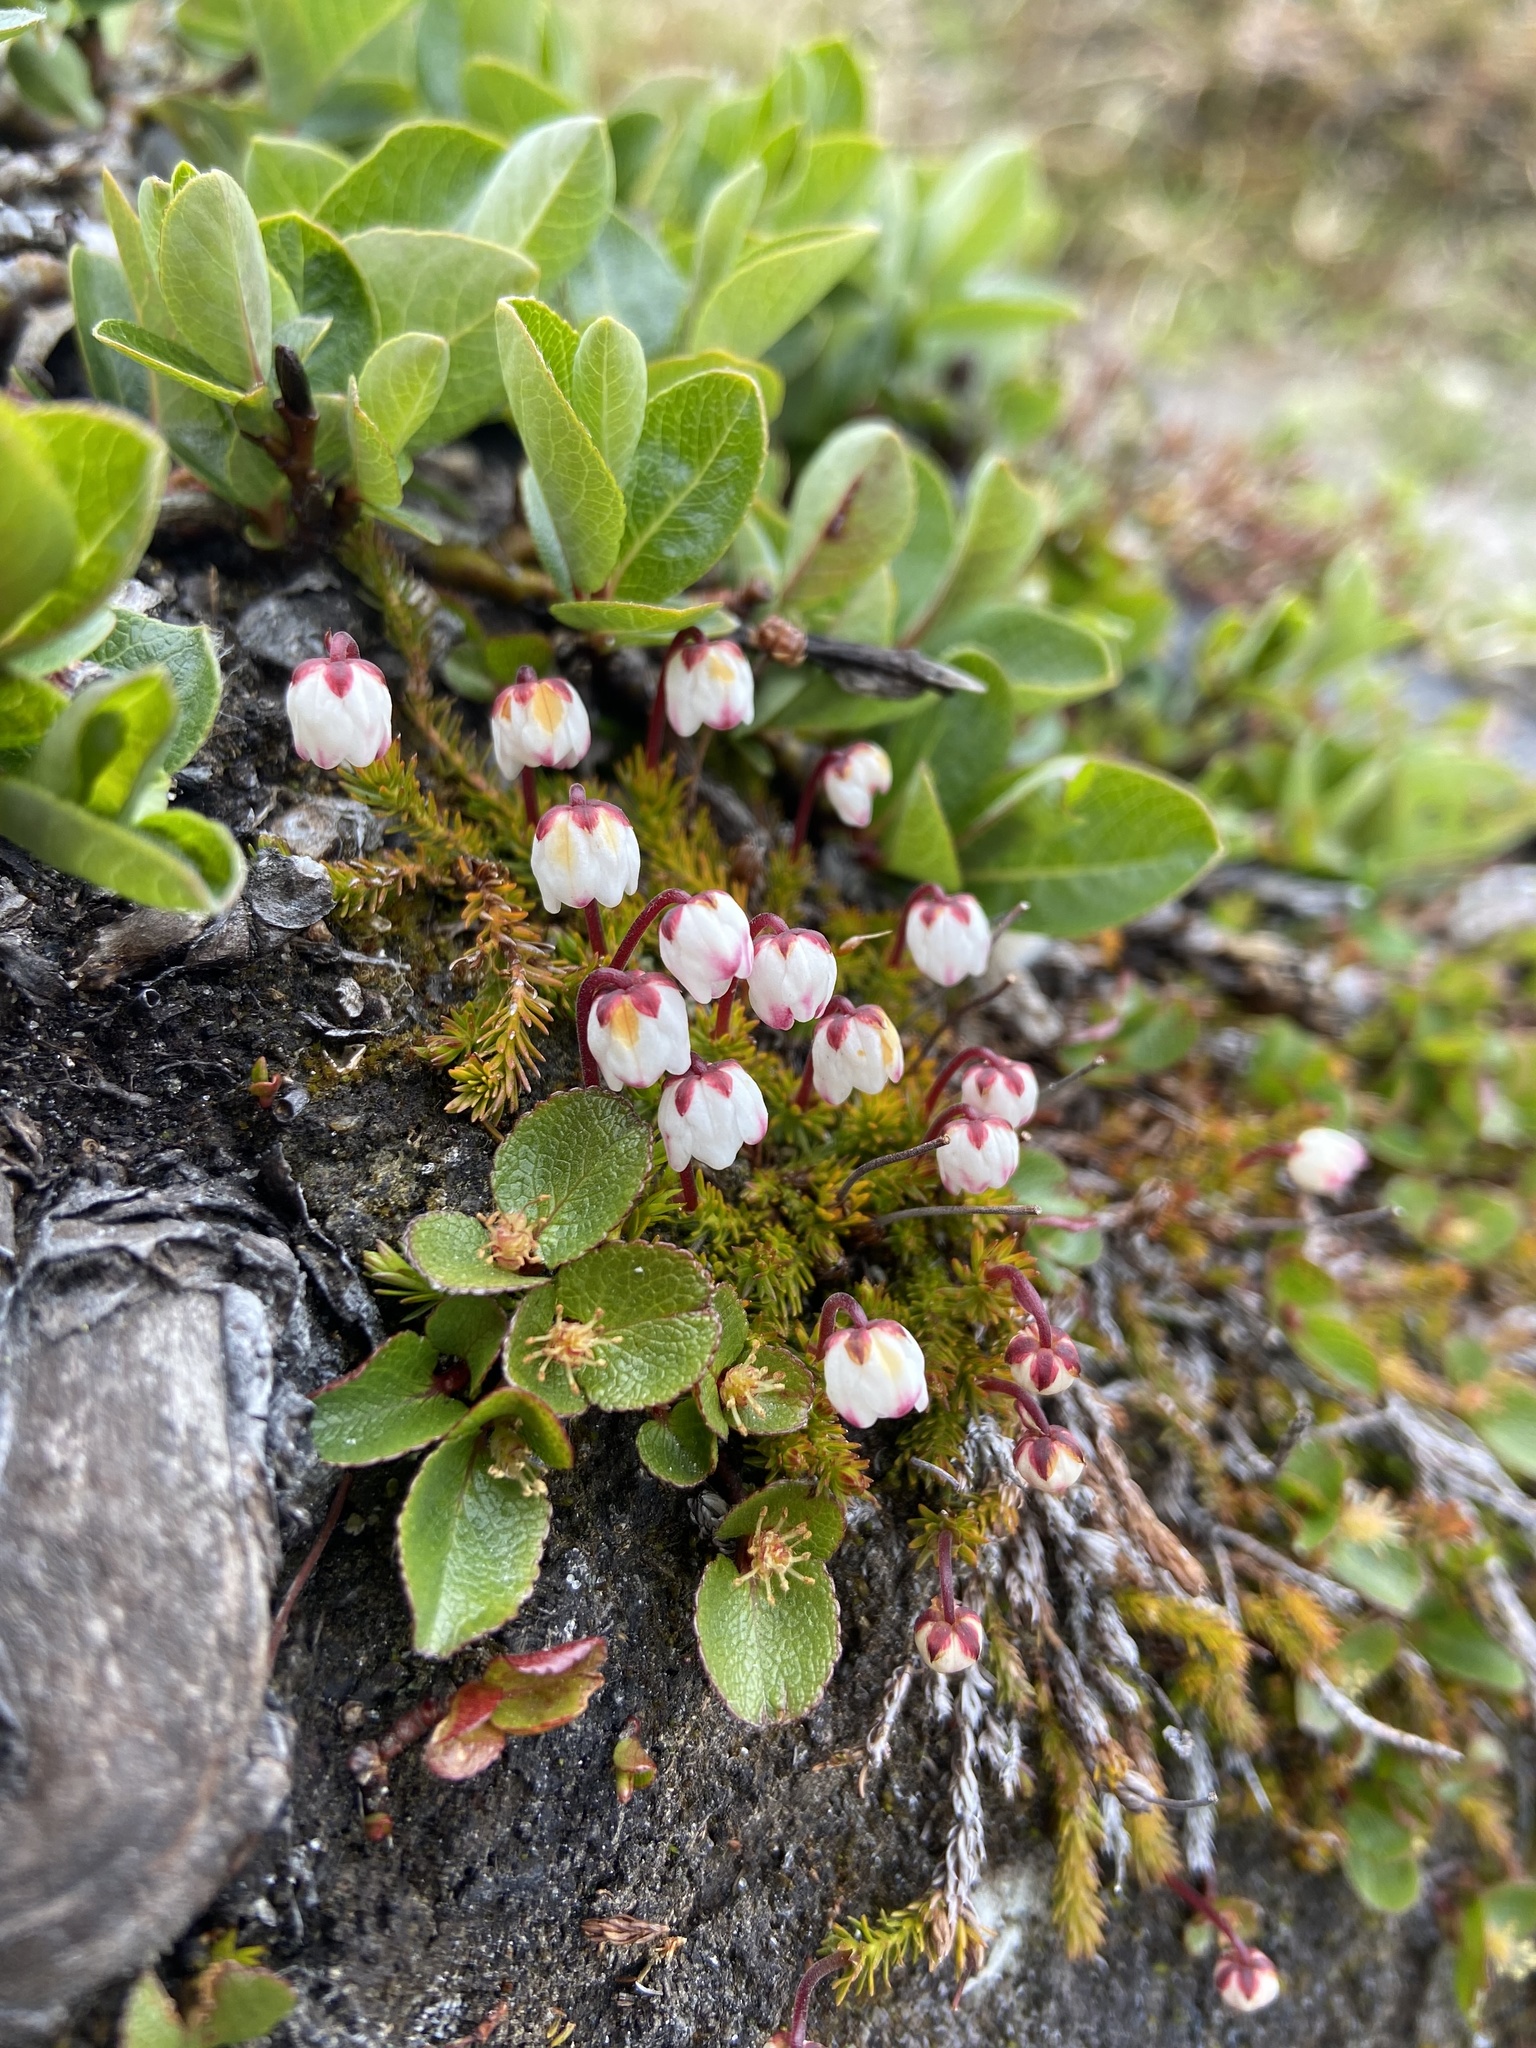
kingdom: Plantae
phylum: Tracheophyta
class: Magnoliopsida
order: Ericales
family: Ericaceae
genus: Harrimanella
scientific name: Harrimanella hypnoides
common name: Moss bell heather
